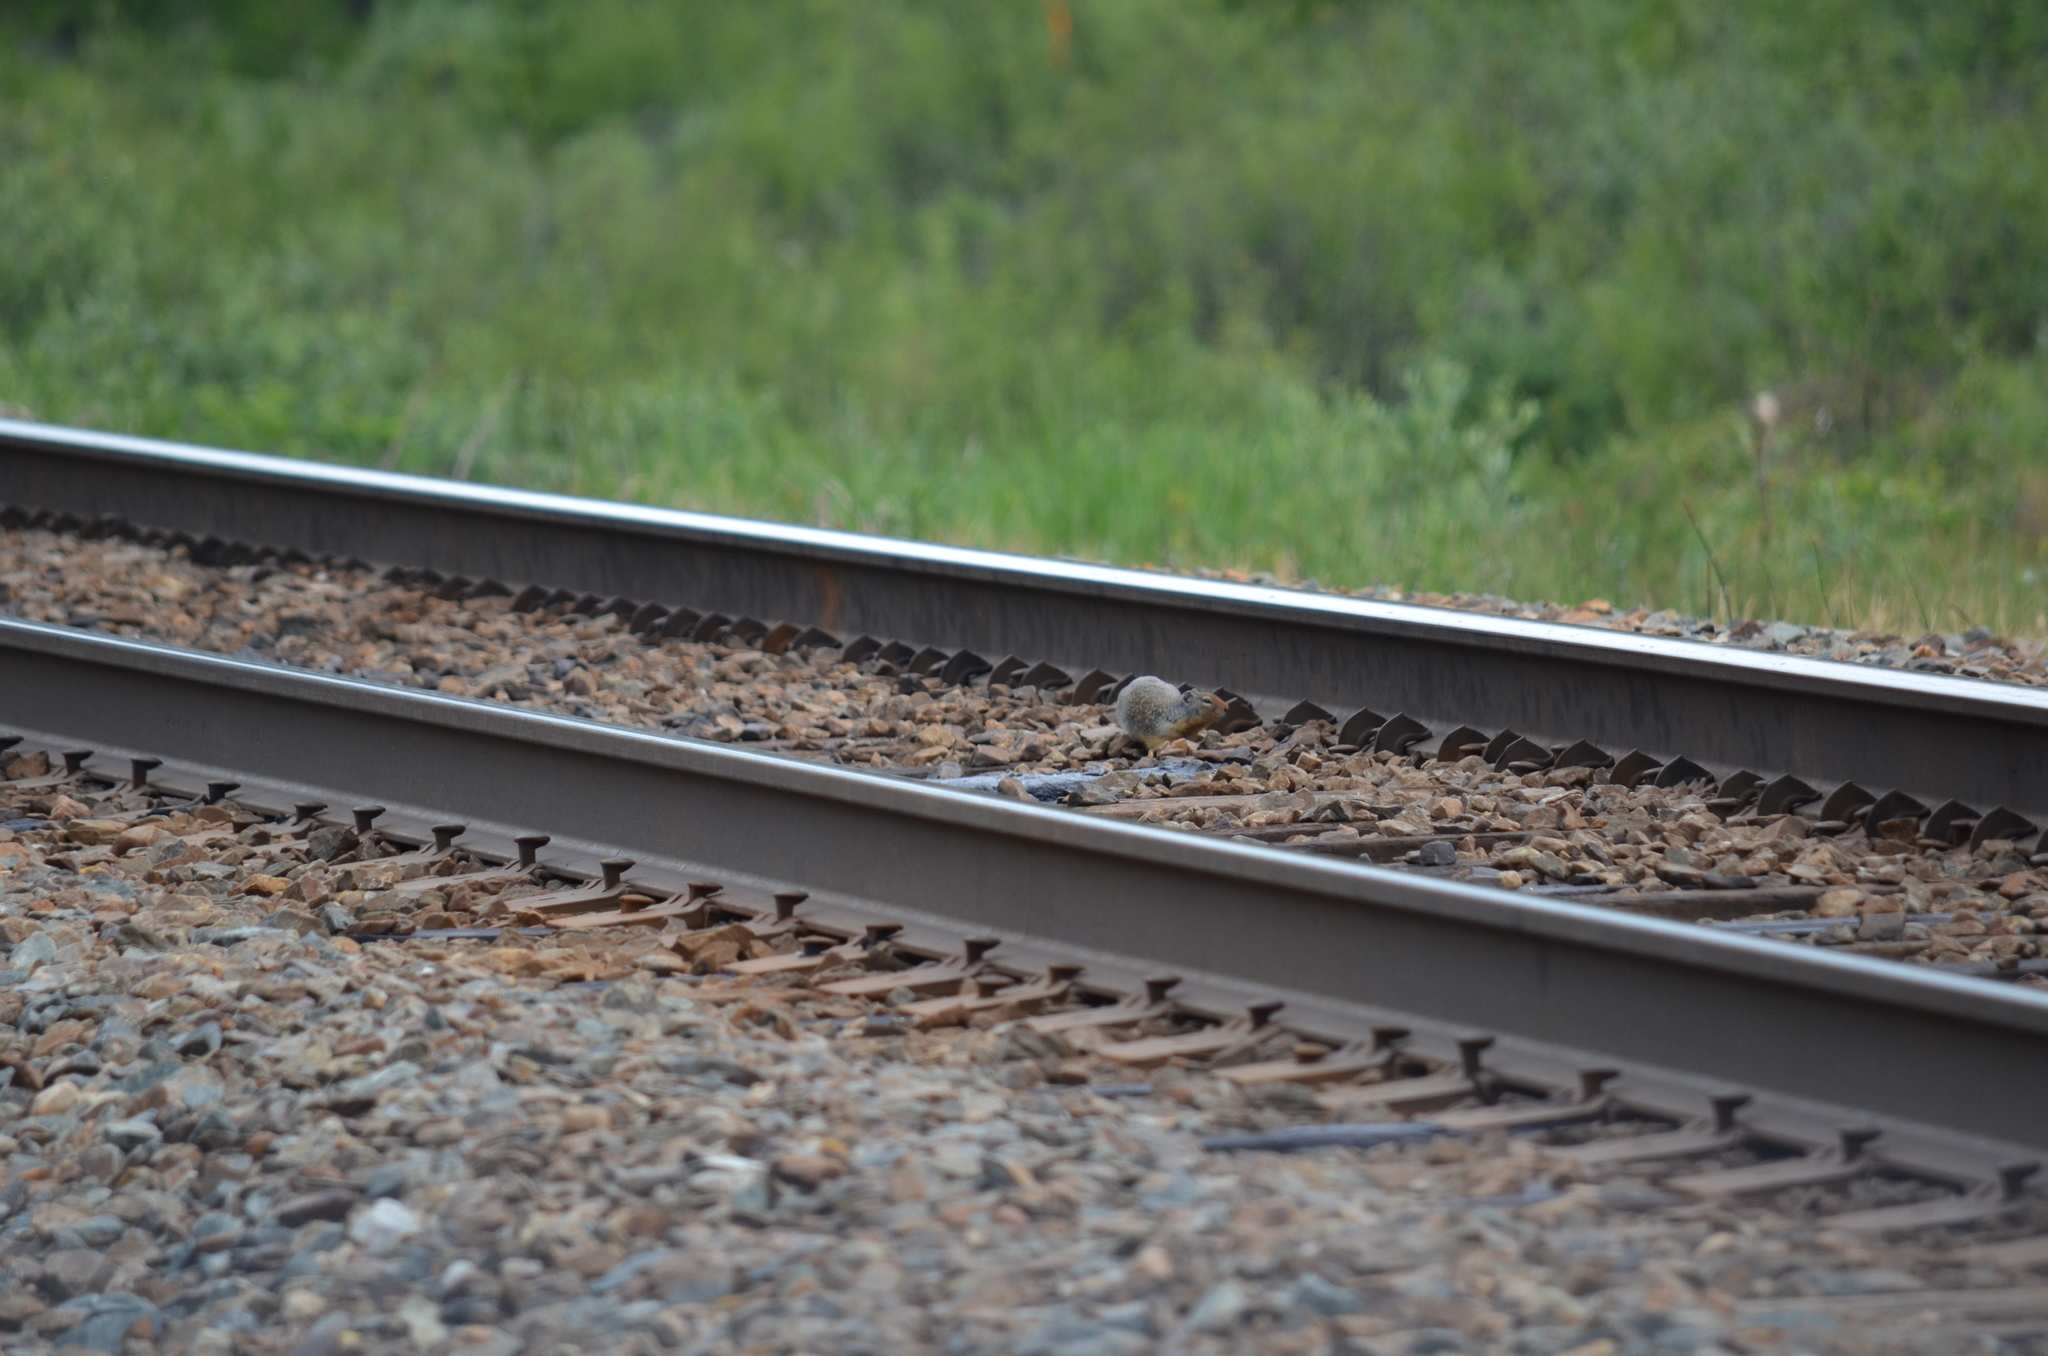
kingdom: Animalia
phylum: Chordata
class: Mammalia
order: Rodentia
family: Sciuridae
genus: Urocitellus
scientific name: Urocitellus columbianus
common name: Columbian ground squirrel
